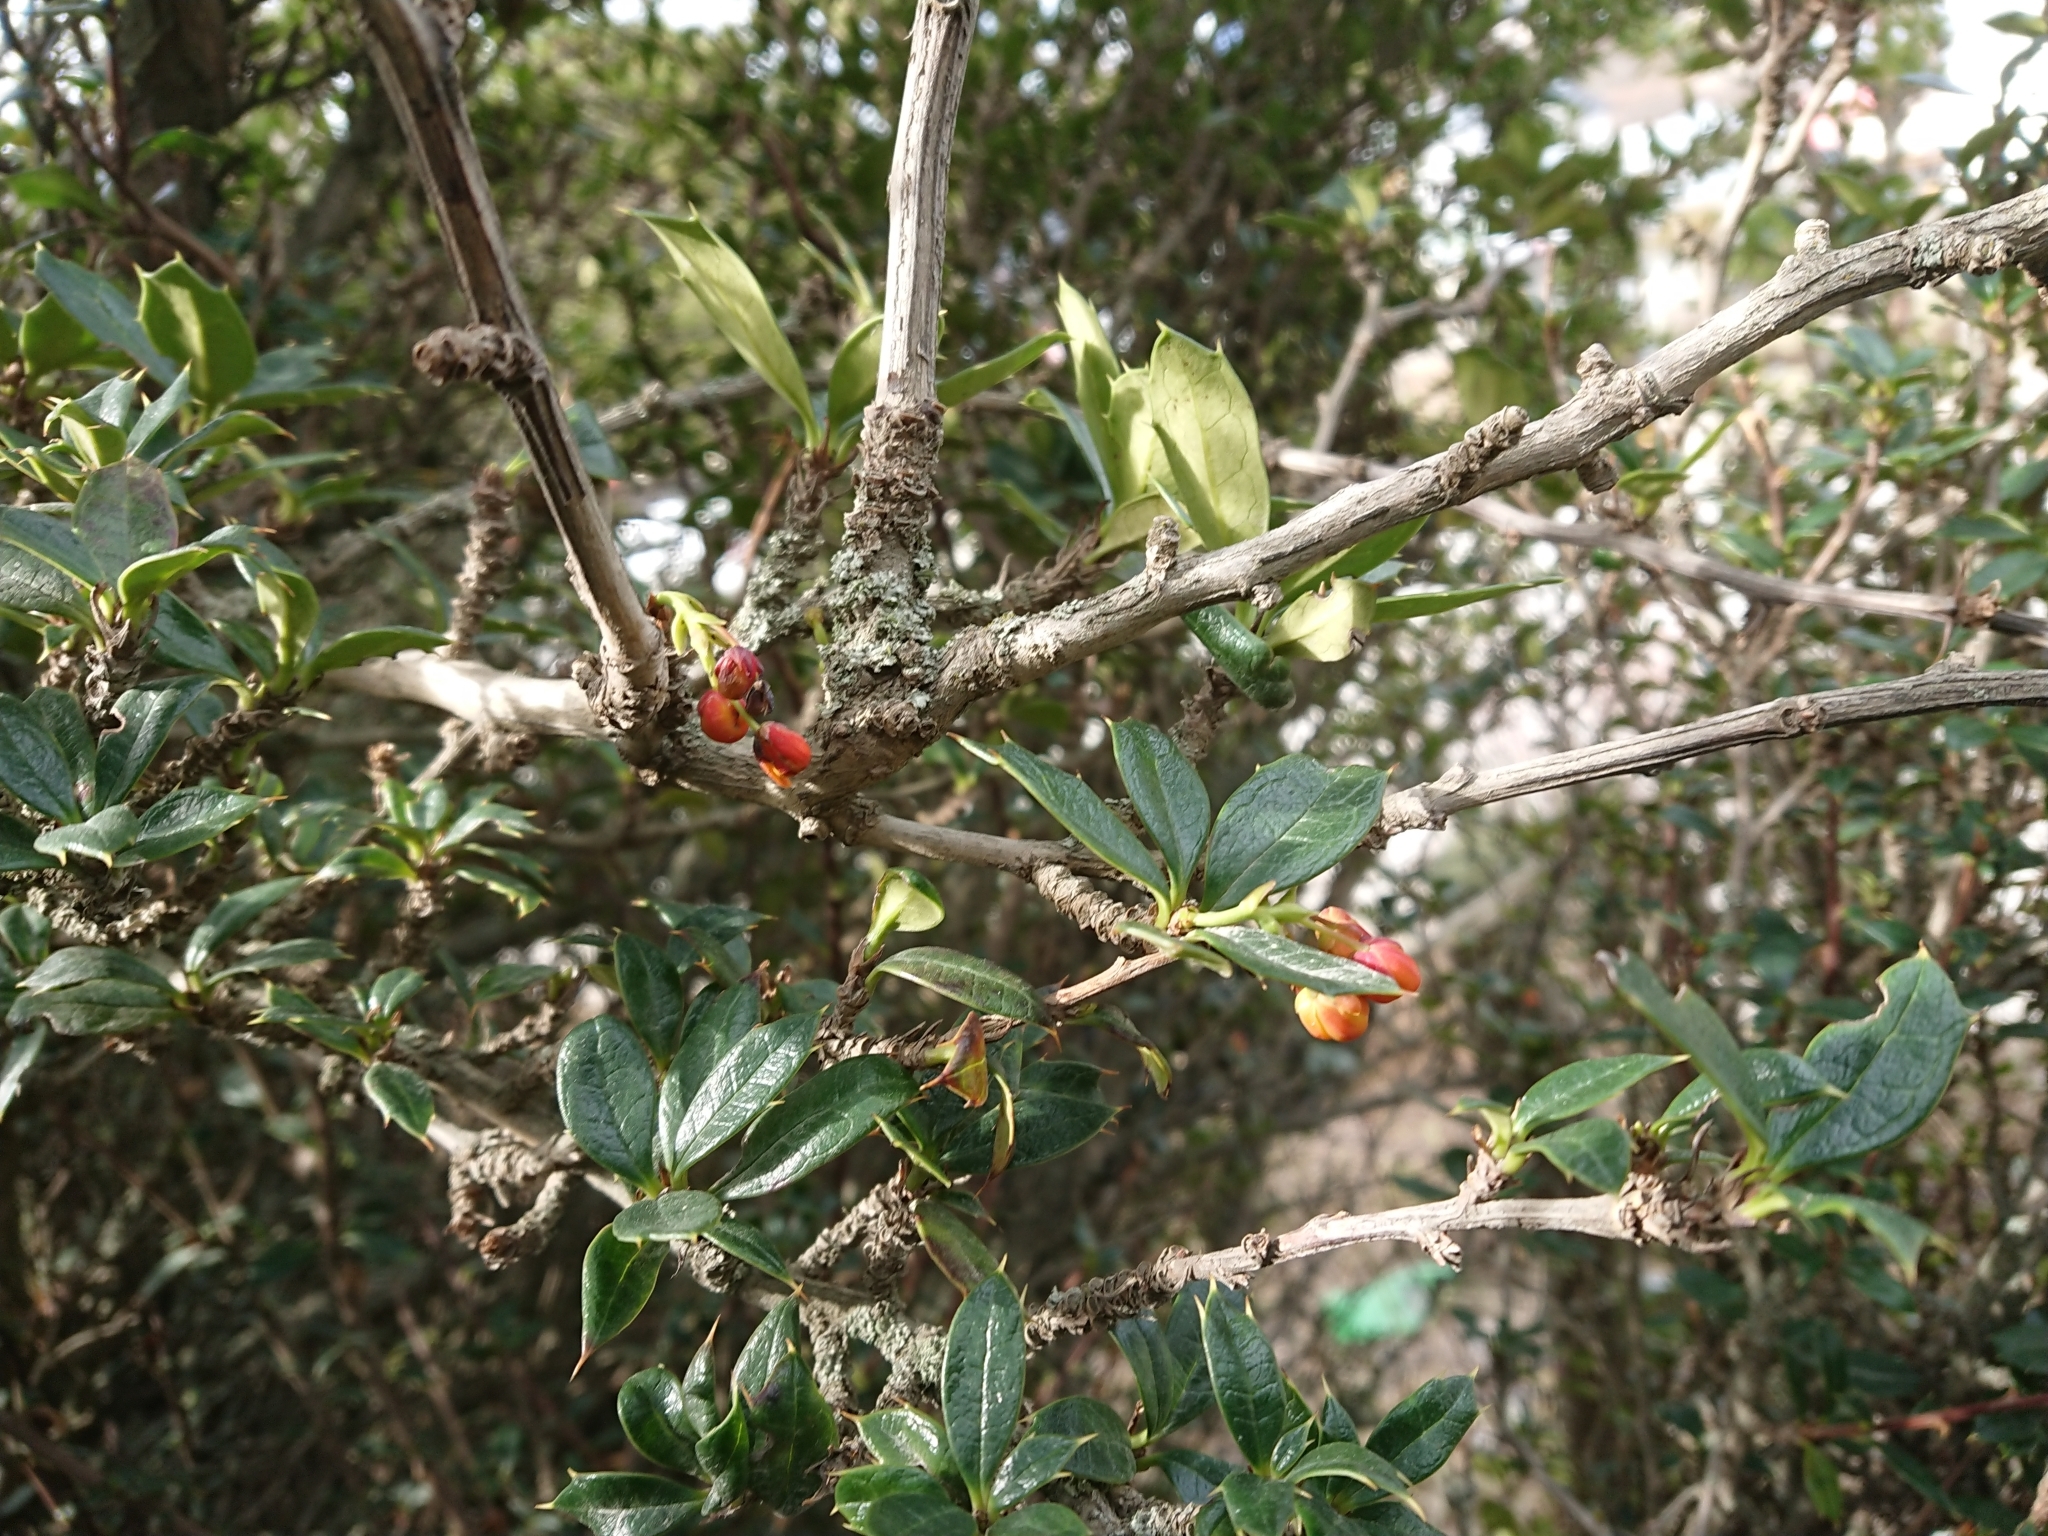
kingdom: Plantae
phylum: Tracheophyta
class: Magnoliopsida
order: Ranunculales
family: Berberidaceae
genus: Berberis
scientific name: Berberis ilicifolia
